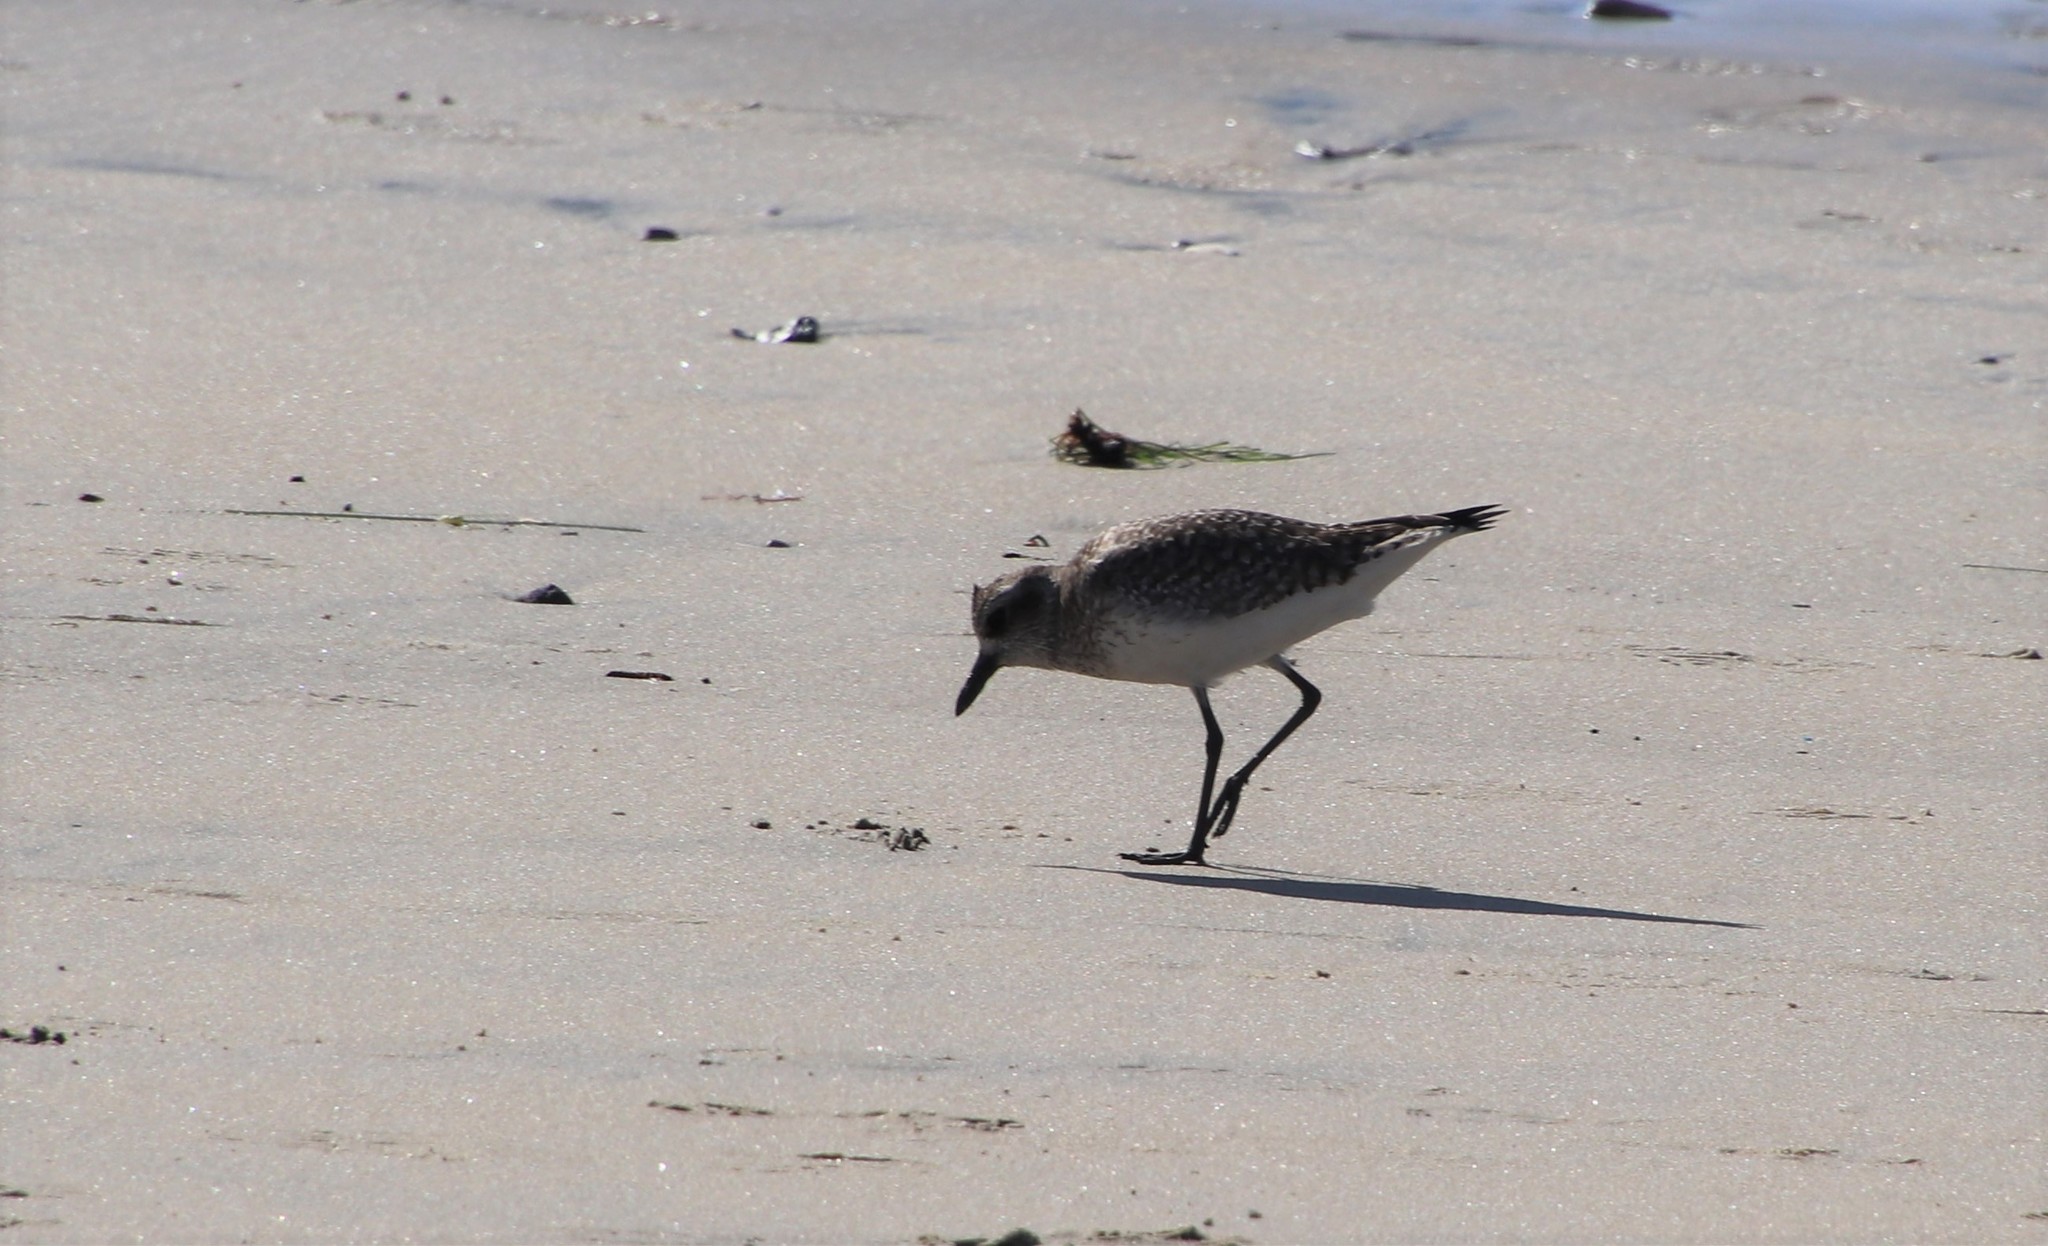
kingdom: Animalia
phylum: Chordata
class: Aves
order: Charadriiformes
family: Charadriidae
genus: Pluvialis
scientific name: Pluvialis squatarola
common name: Grey plover
